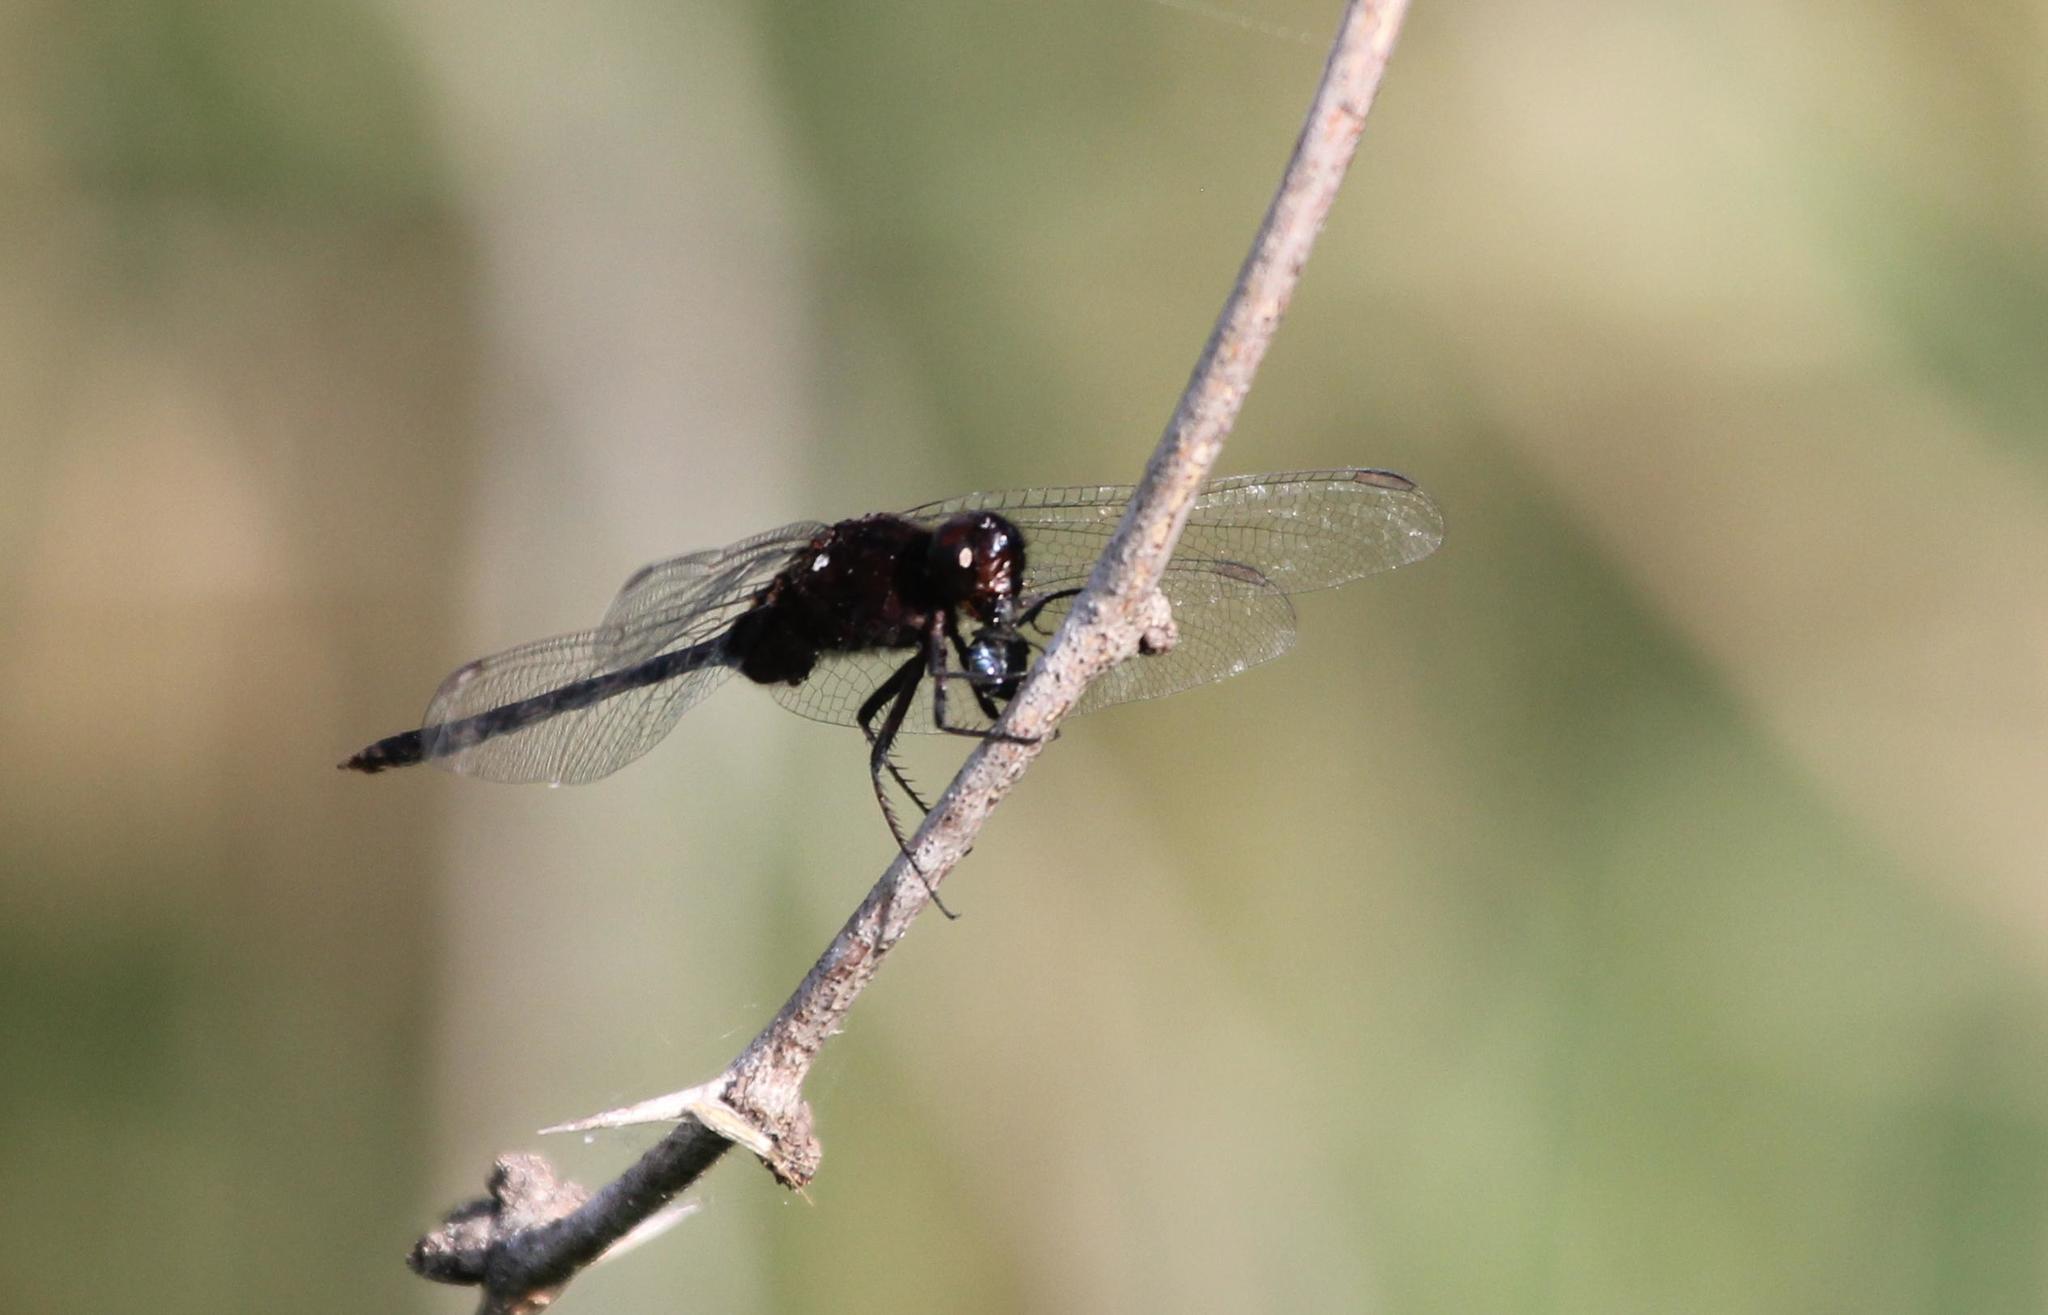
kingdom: Animalia
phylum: Arthropoda
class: Insecta
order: Odonata
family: Libellulidae
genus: Erythemis
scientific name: Erythemis plebeja
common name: Pin-tailed pondhawk
